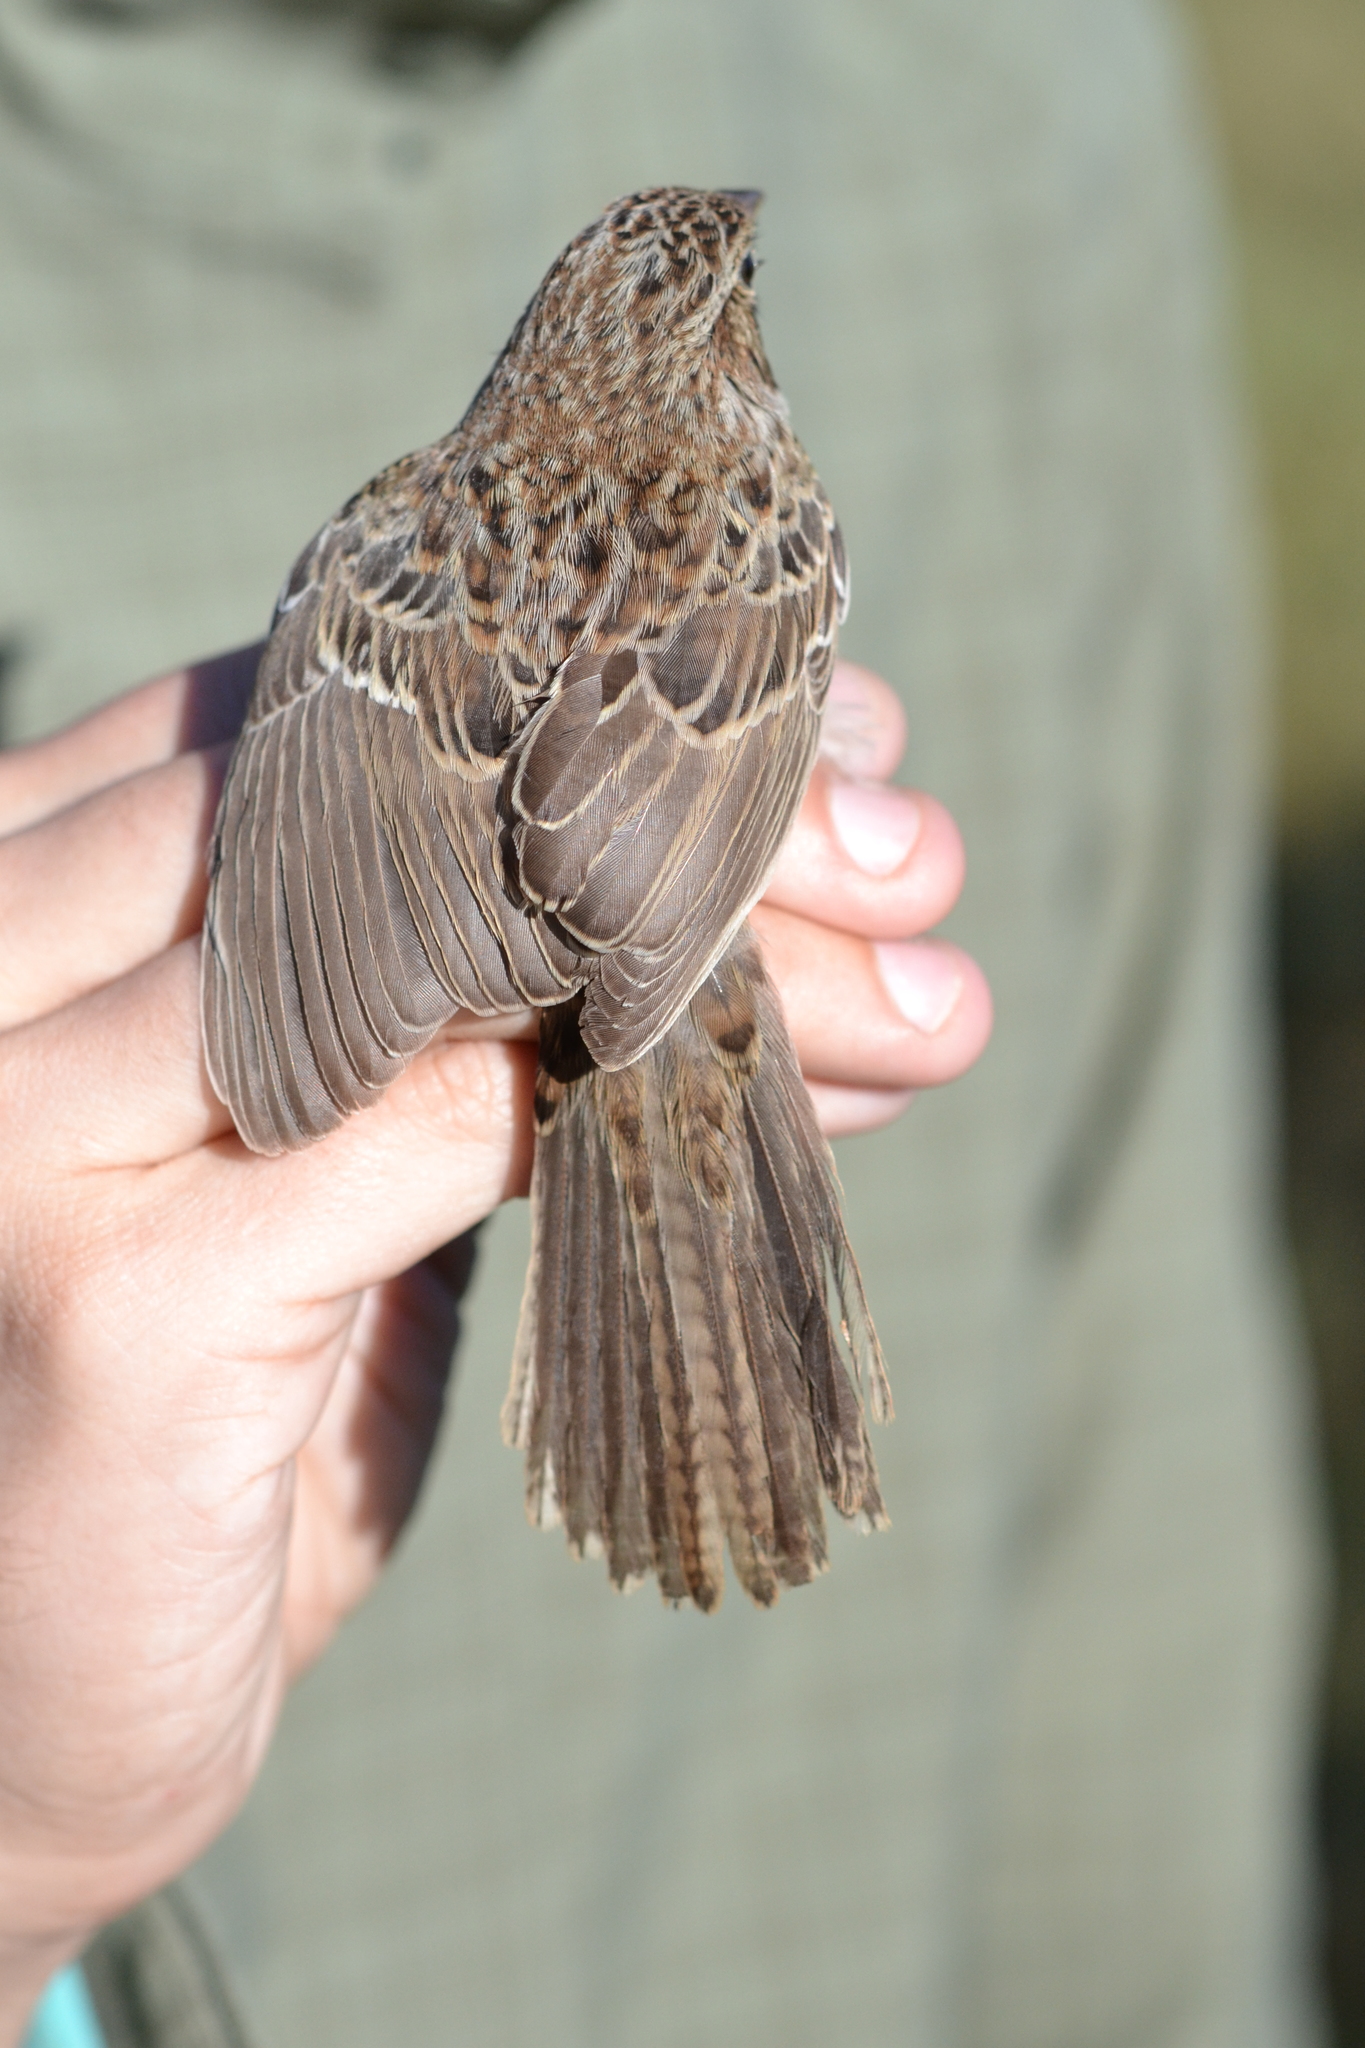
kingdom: Animalia
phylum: Chordata
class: Aves
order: Passeriformes
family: Passerellidae
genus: Peucaea
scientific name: Peucaea cassinii
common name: Cassin's sparrow
